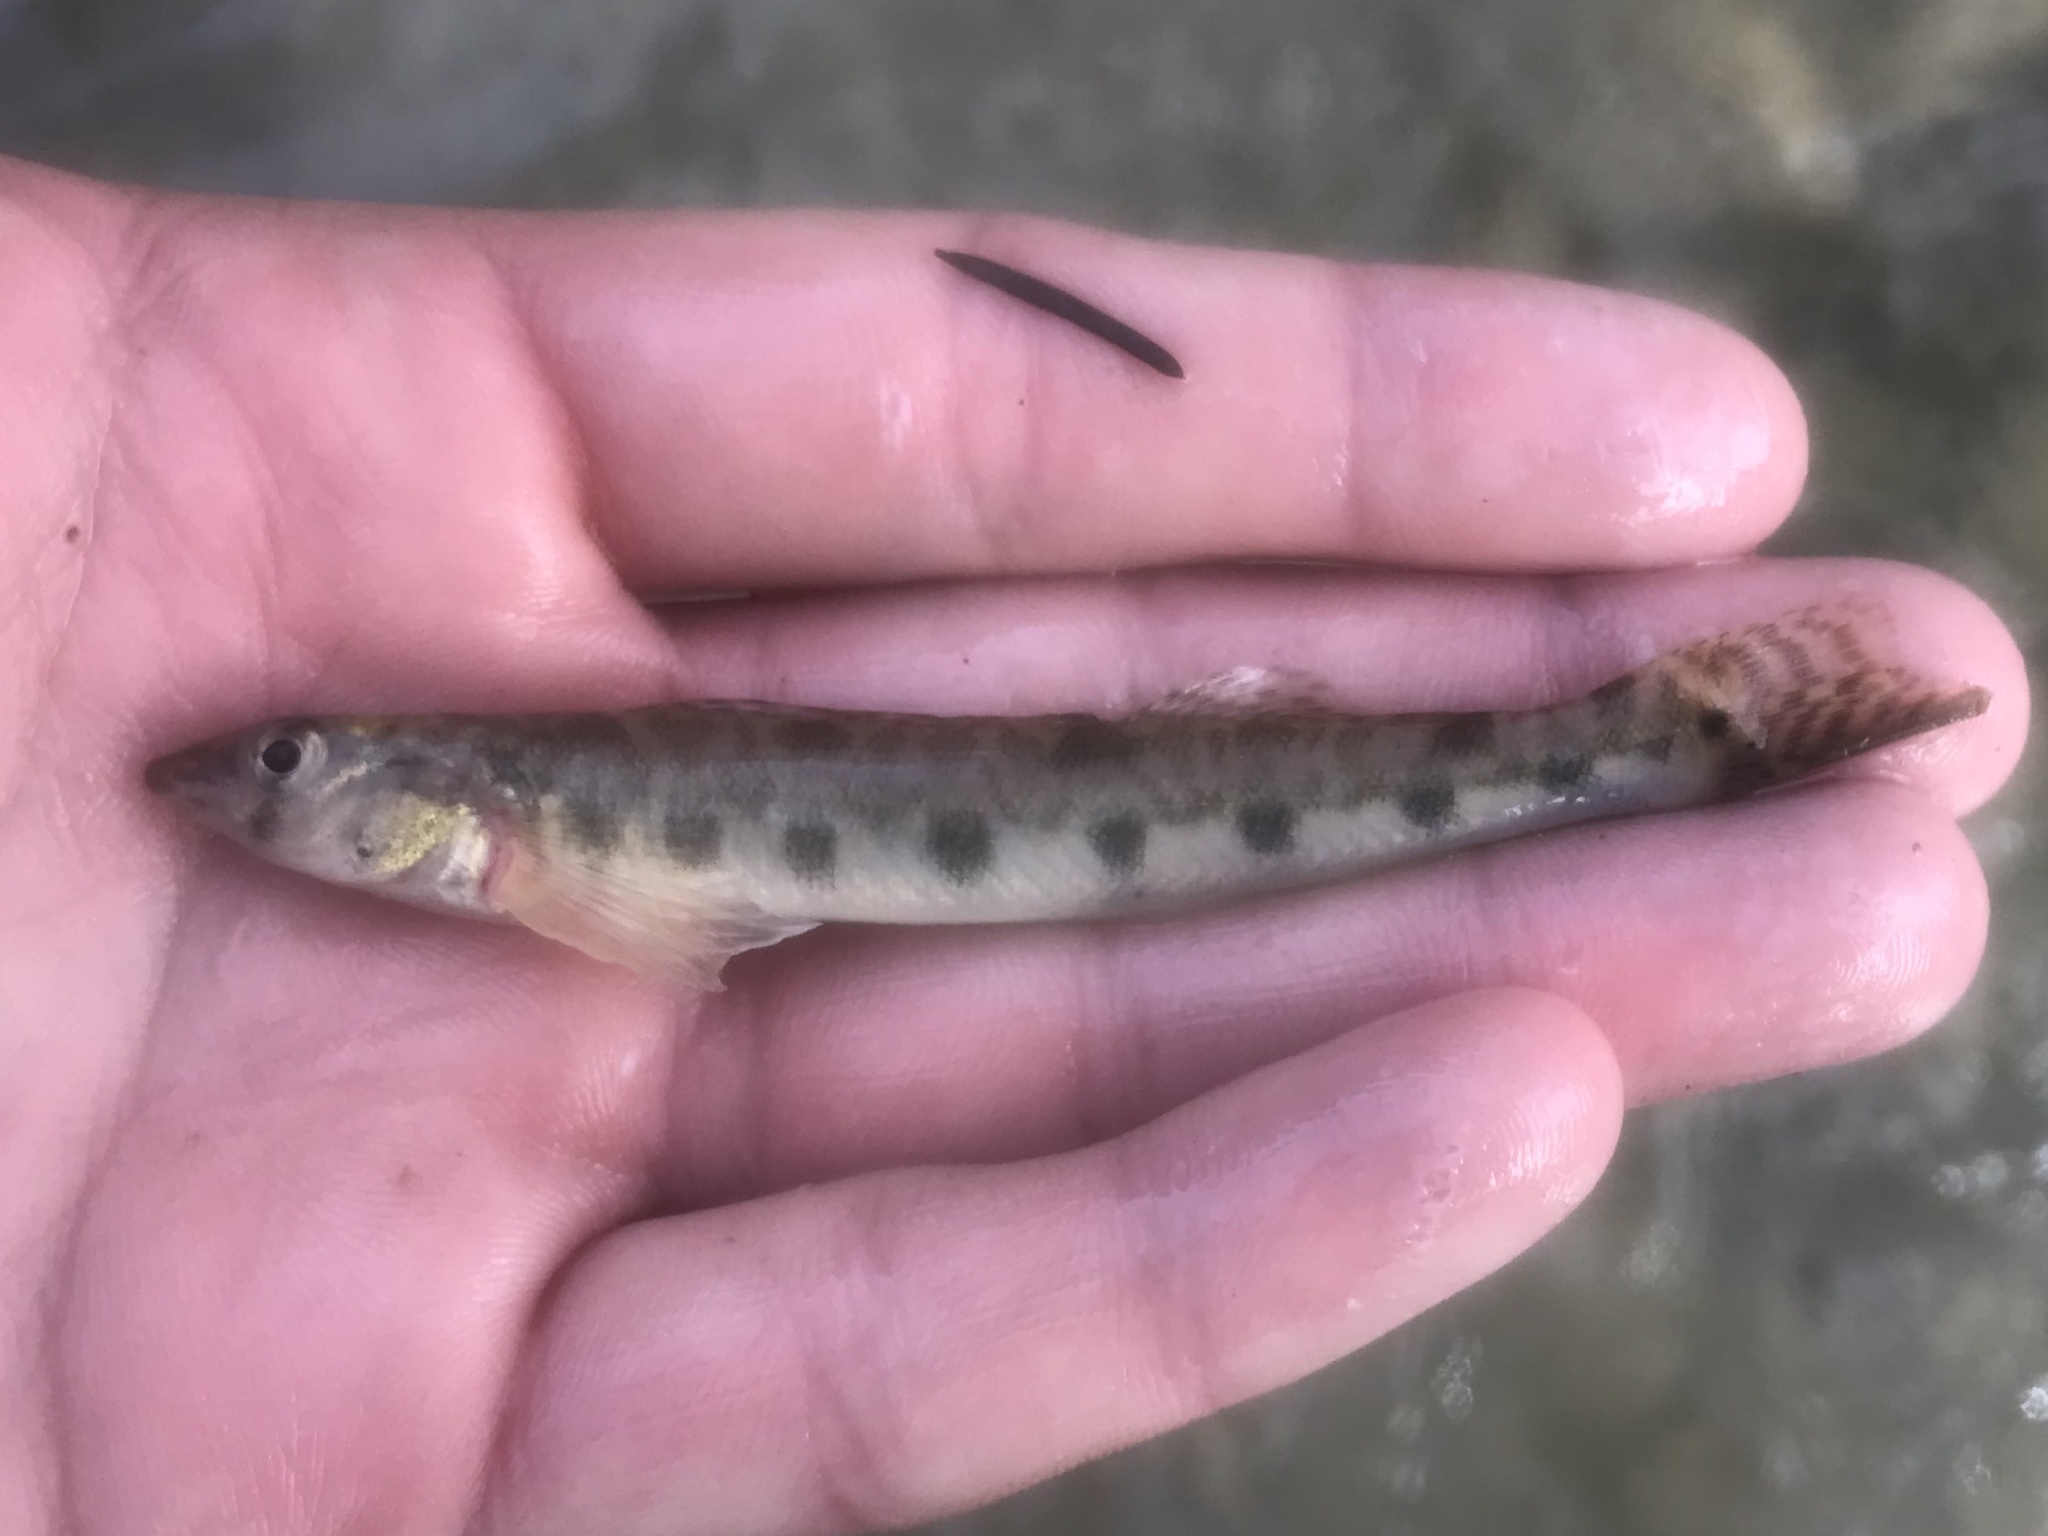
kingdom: Animalia
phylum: Chordata
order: Perciformes
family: Percidae
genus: Percina
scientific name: Percina carbonaria
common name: Texas logperch
